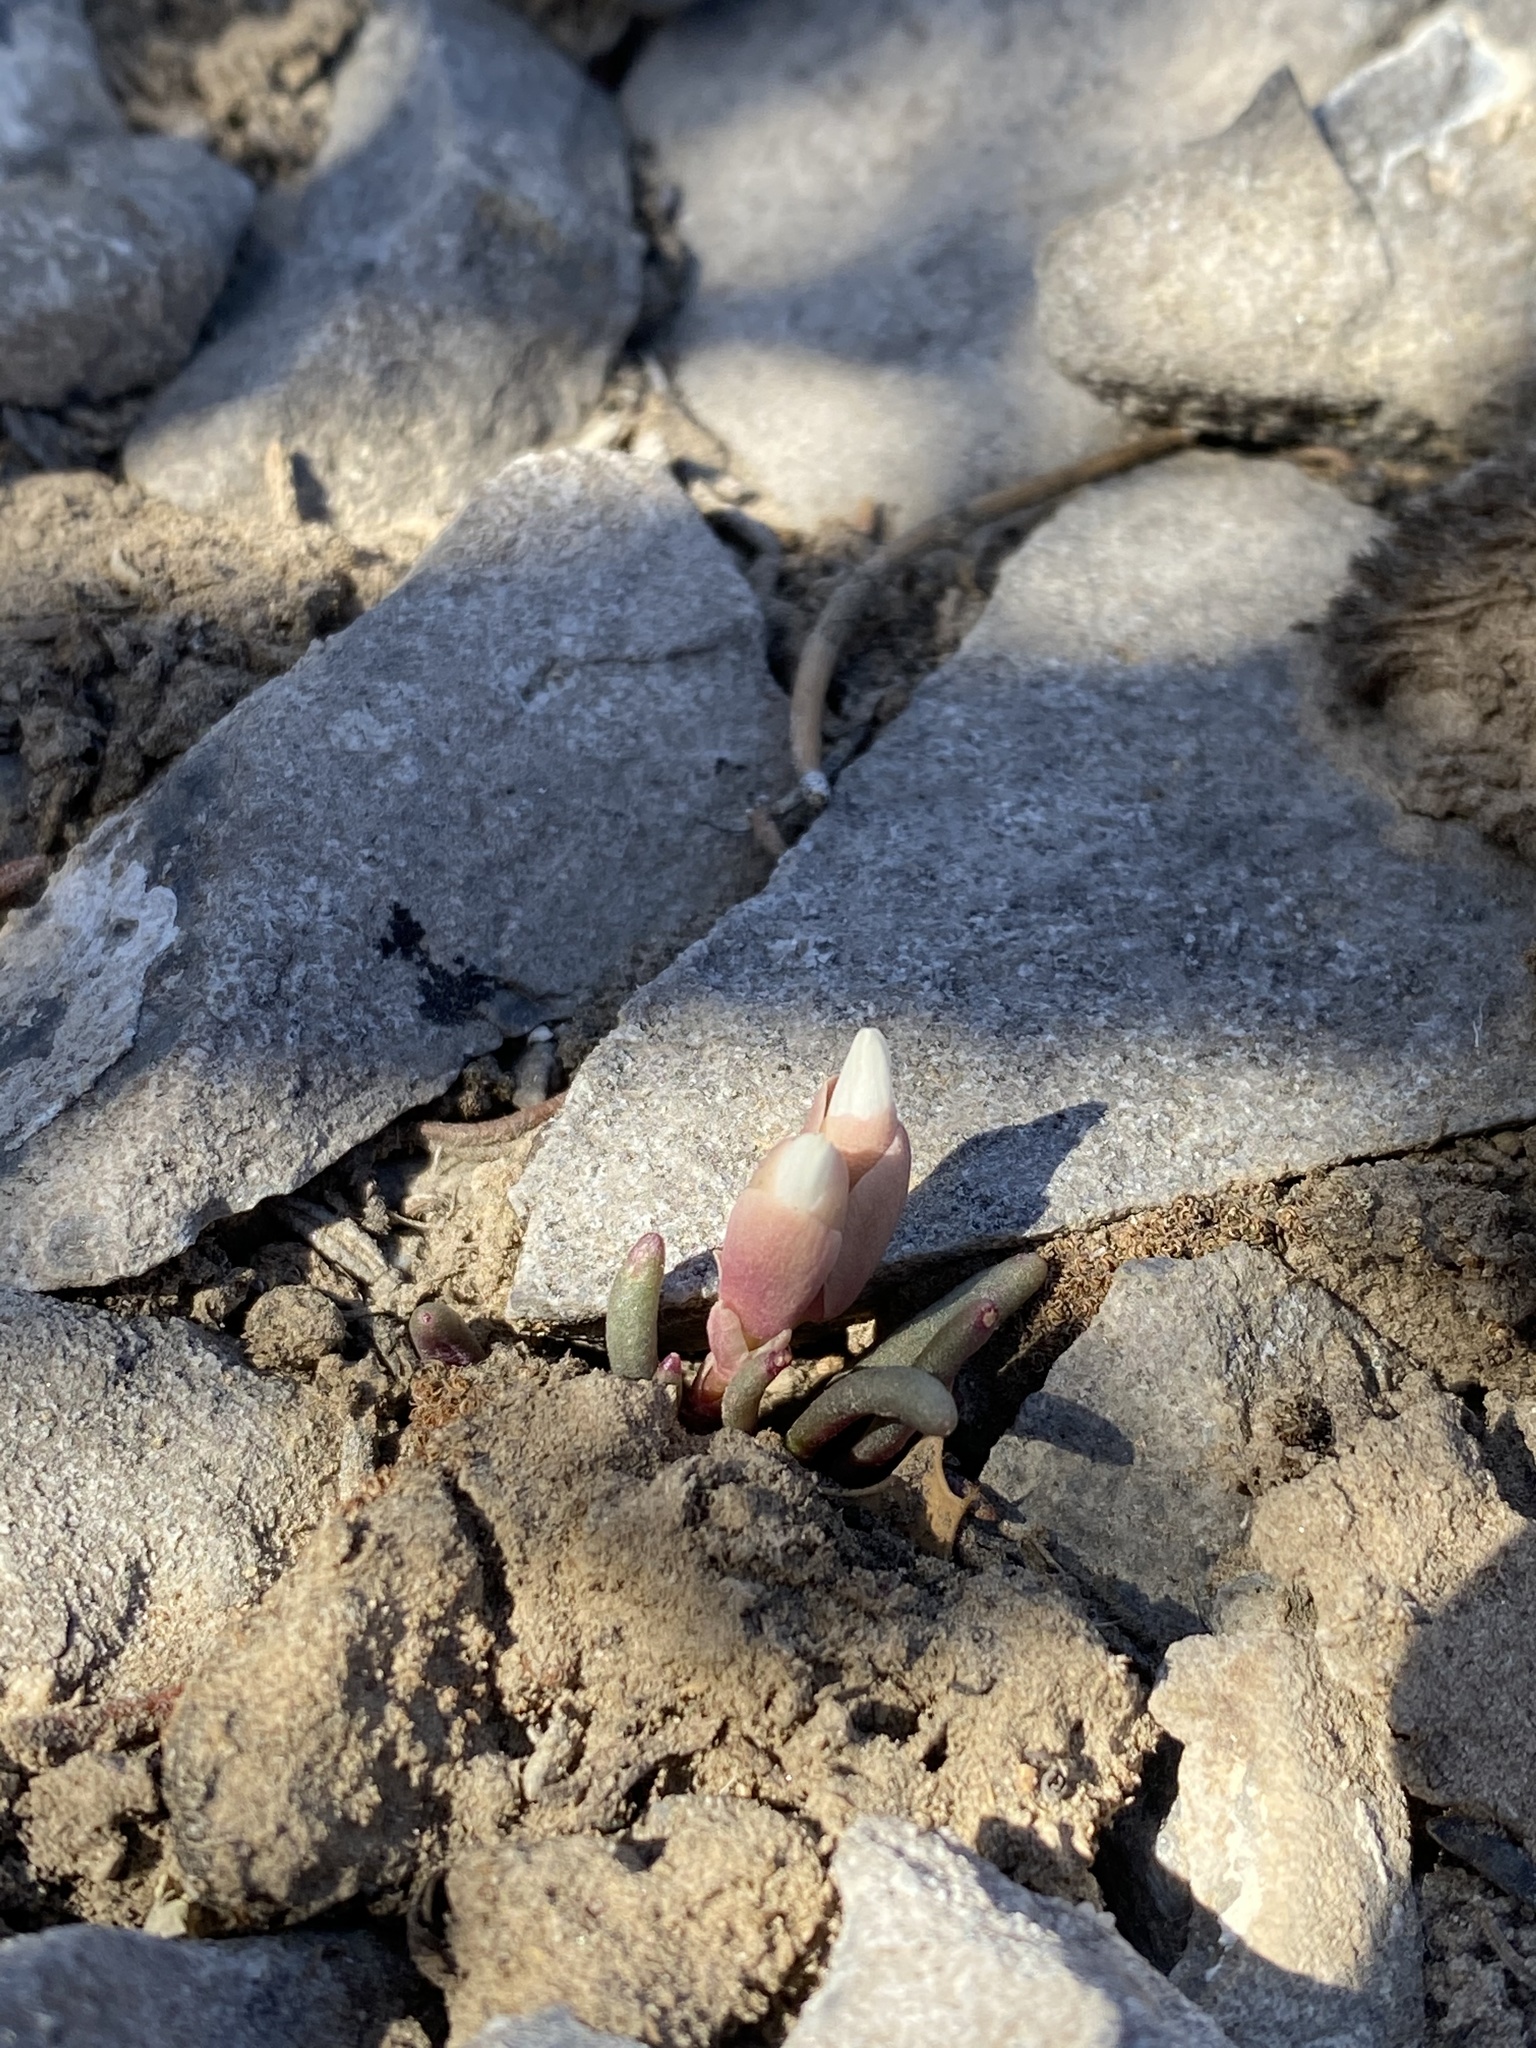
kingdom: Plantae
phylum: Tracheophyta
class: Magnoliopsida
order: Caryophyllales
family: Montiaceae
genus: Lewisia
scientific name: Lewisia maguirei
